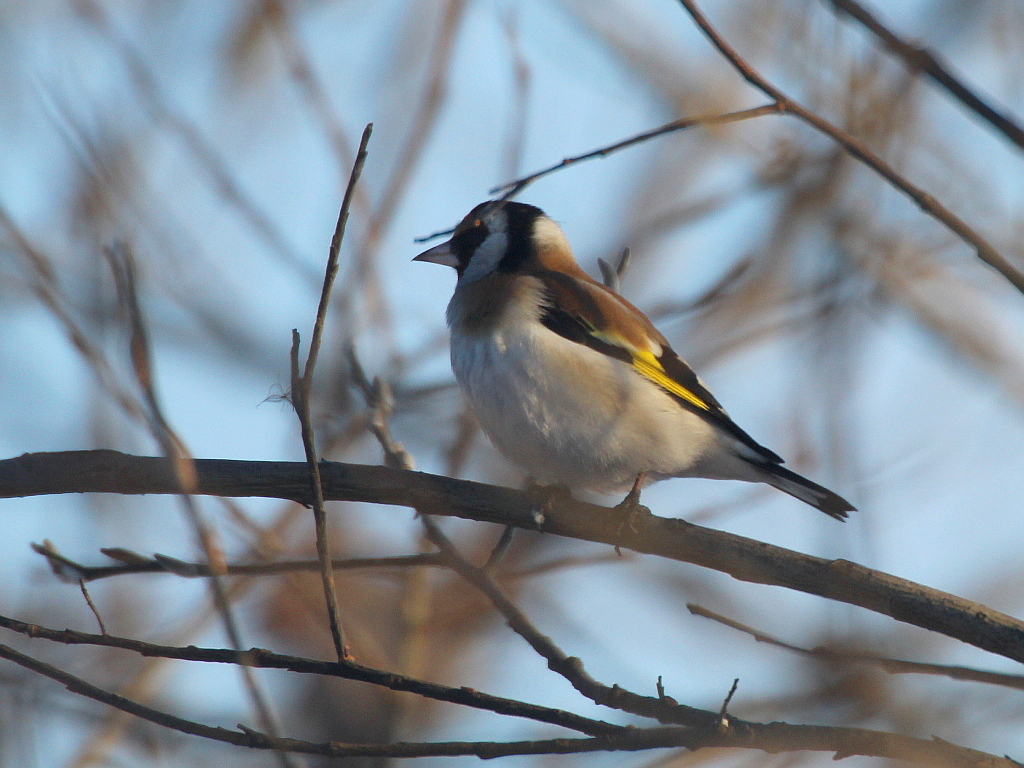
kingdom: Animalia
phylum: Chordata
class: Aves
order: Passeriformes
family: Fringillidae
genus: Carduelis
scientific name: Carduelis carduelis
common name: European goldfinch
